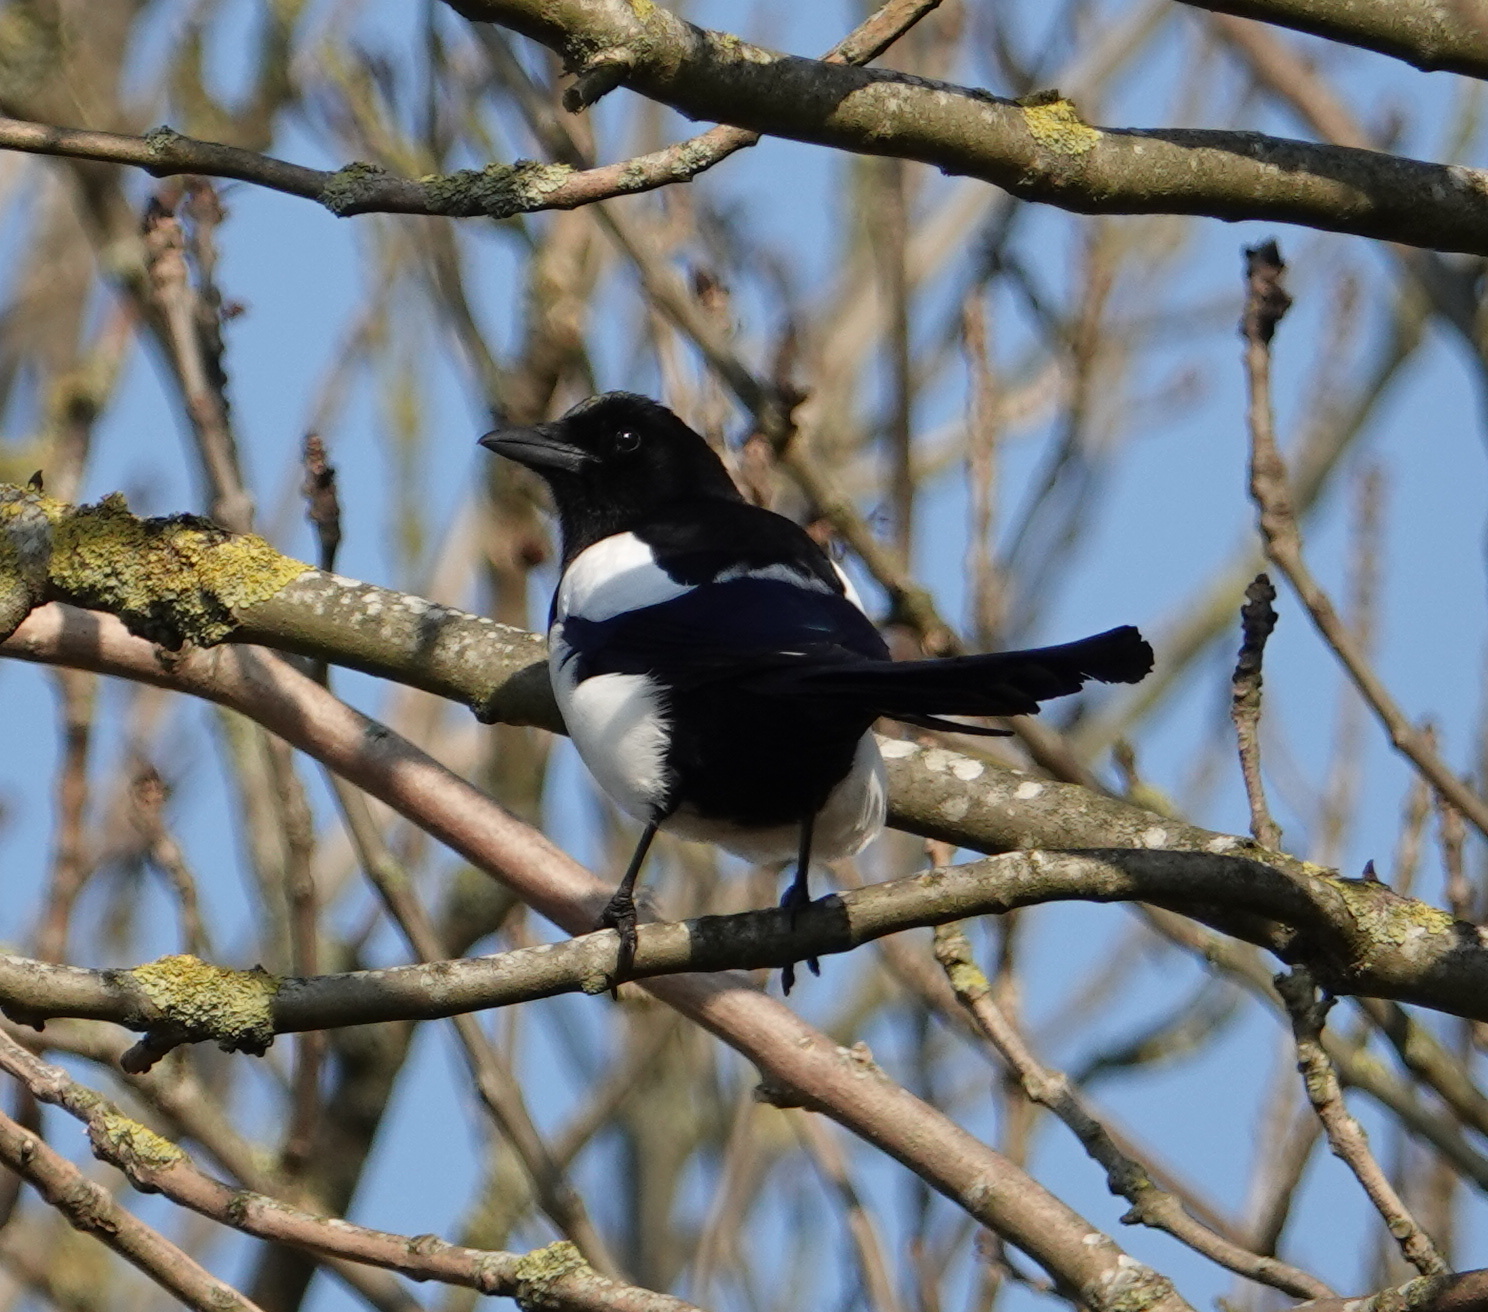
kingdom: Animalia
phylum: Chordata
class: Aves
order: Passeriformes
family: Corvidae
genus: Pica
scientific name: Pica pica
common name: Eurasian magpie
